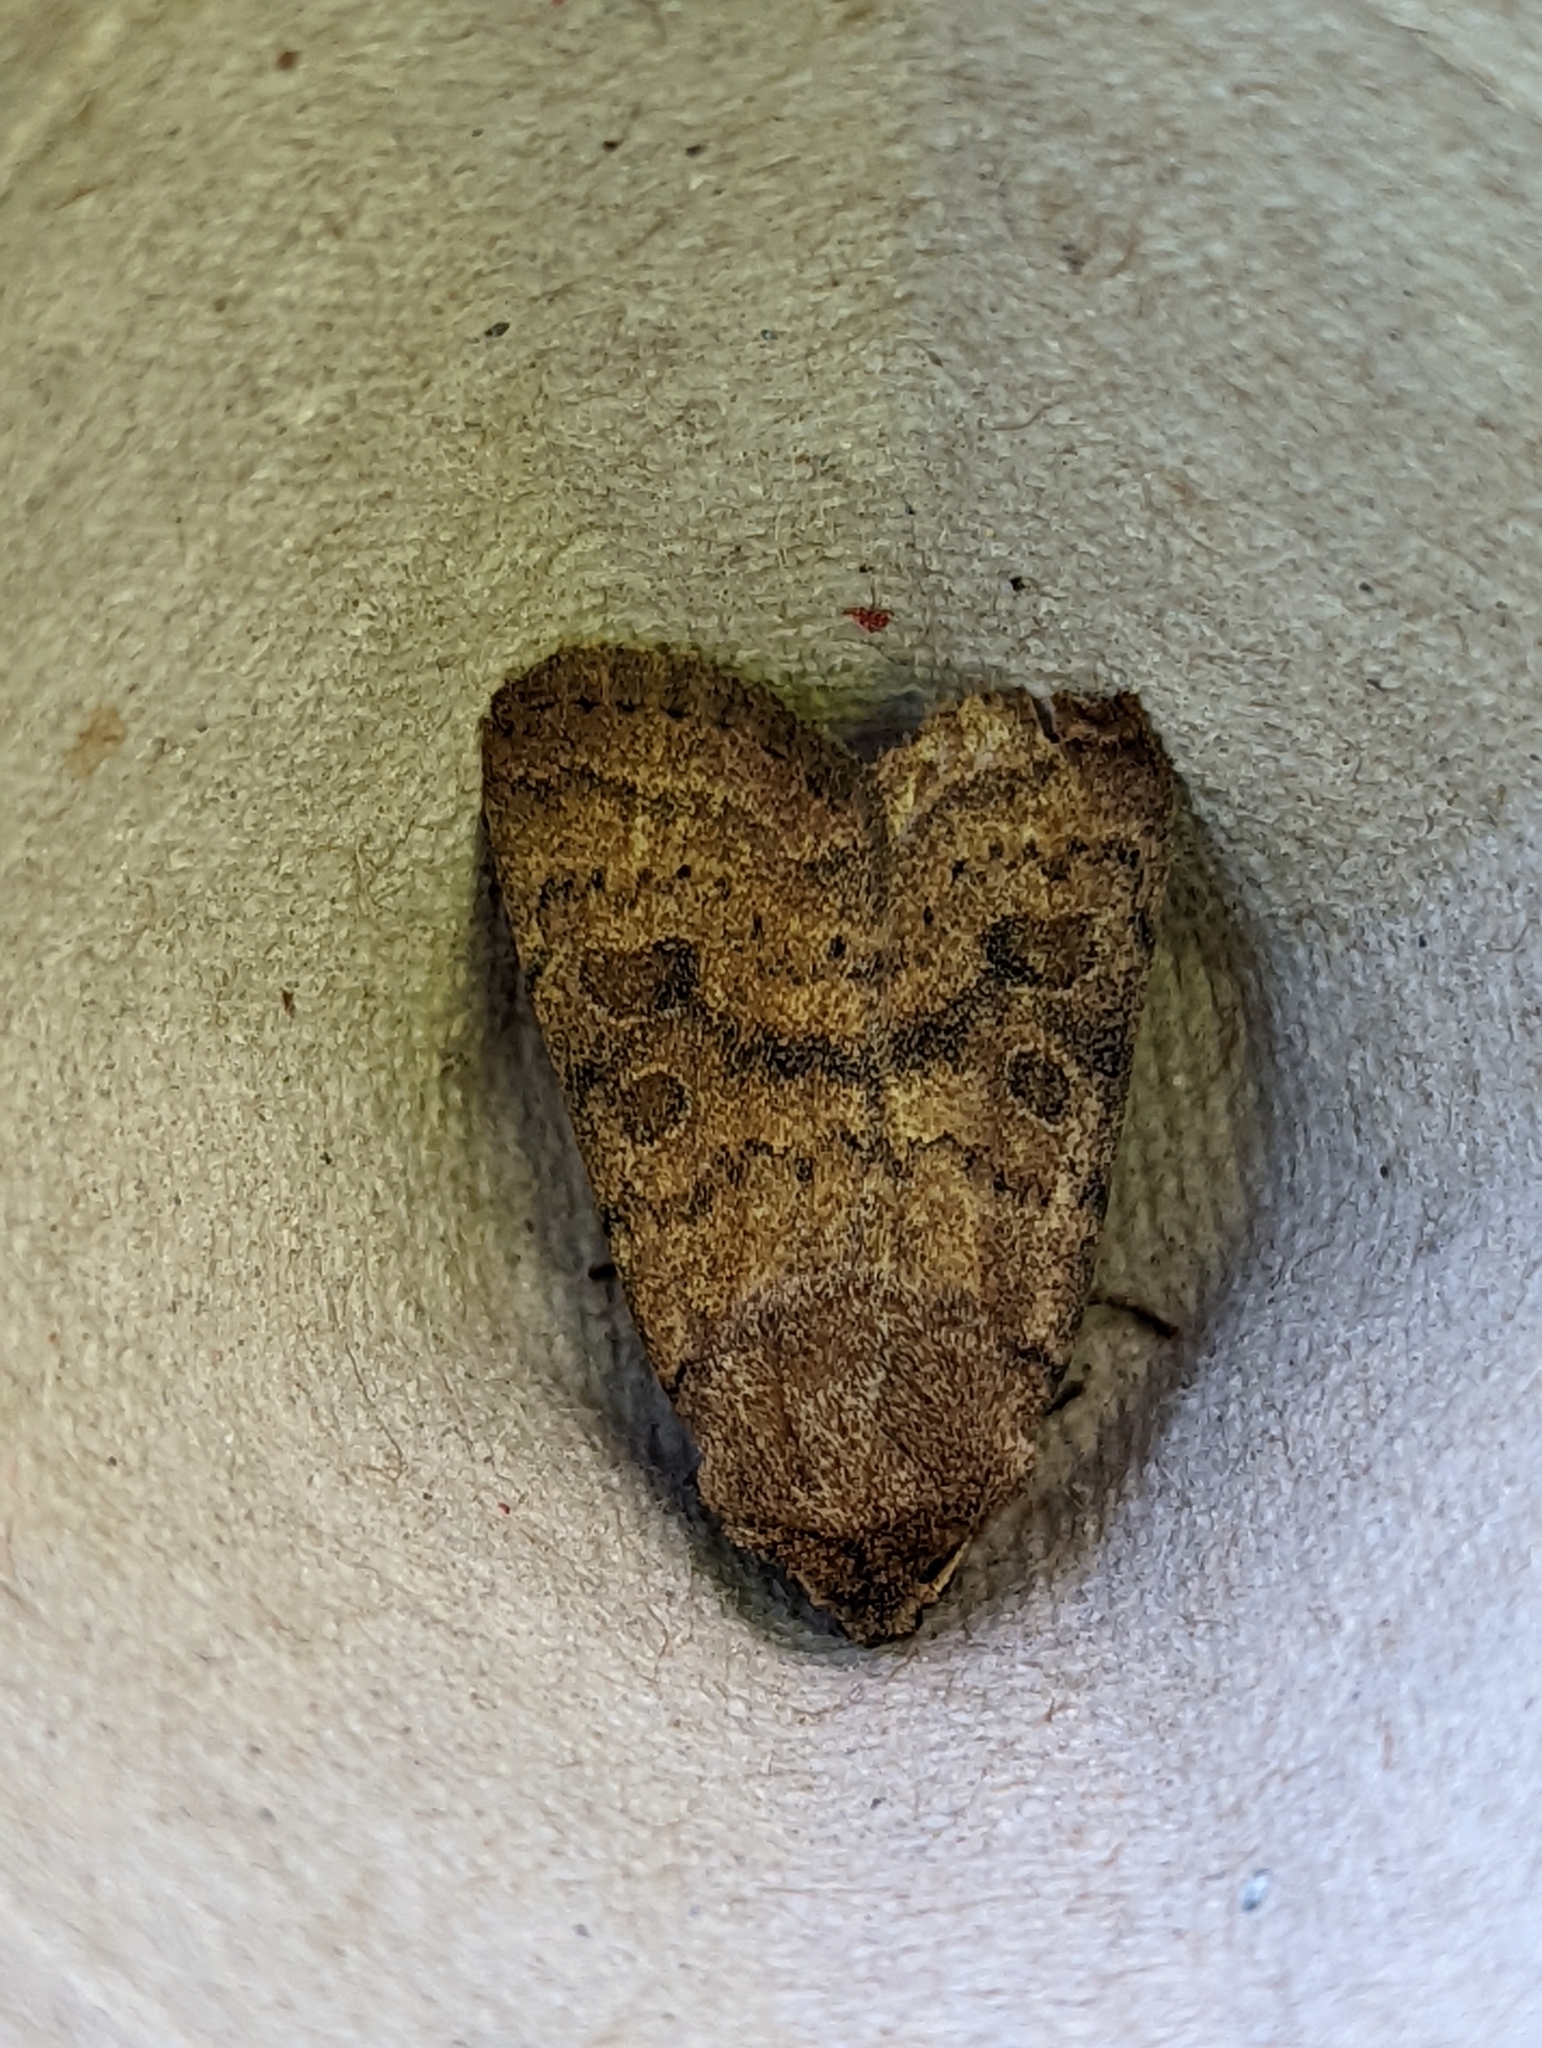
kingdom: Animalia
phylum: Arthropoda
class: Insecta
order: Lepidoptera
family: Noctuidae
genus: Hoplodrina
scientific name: Hoplodrina octogenaria
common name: Uncertain
